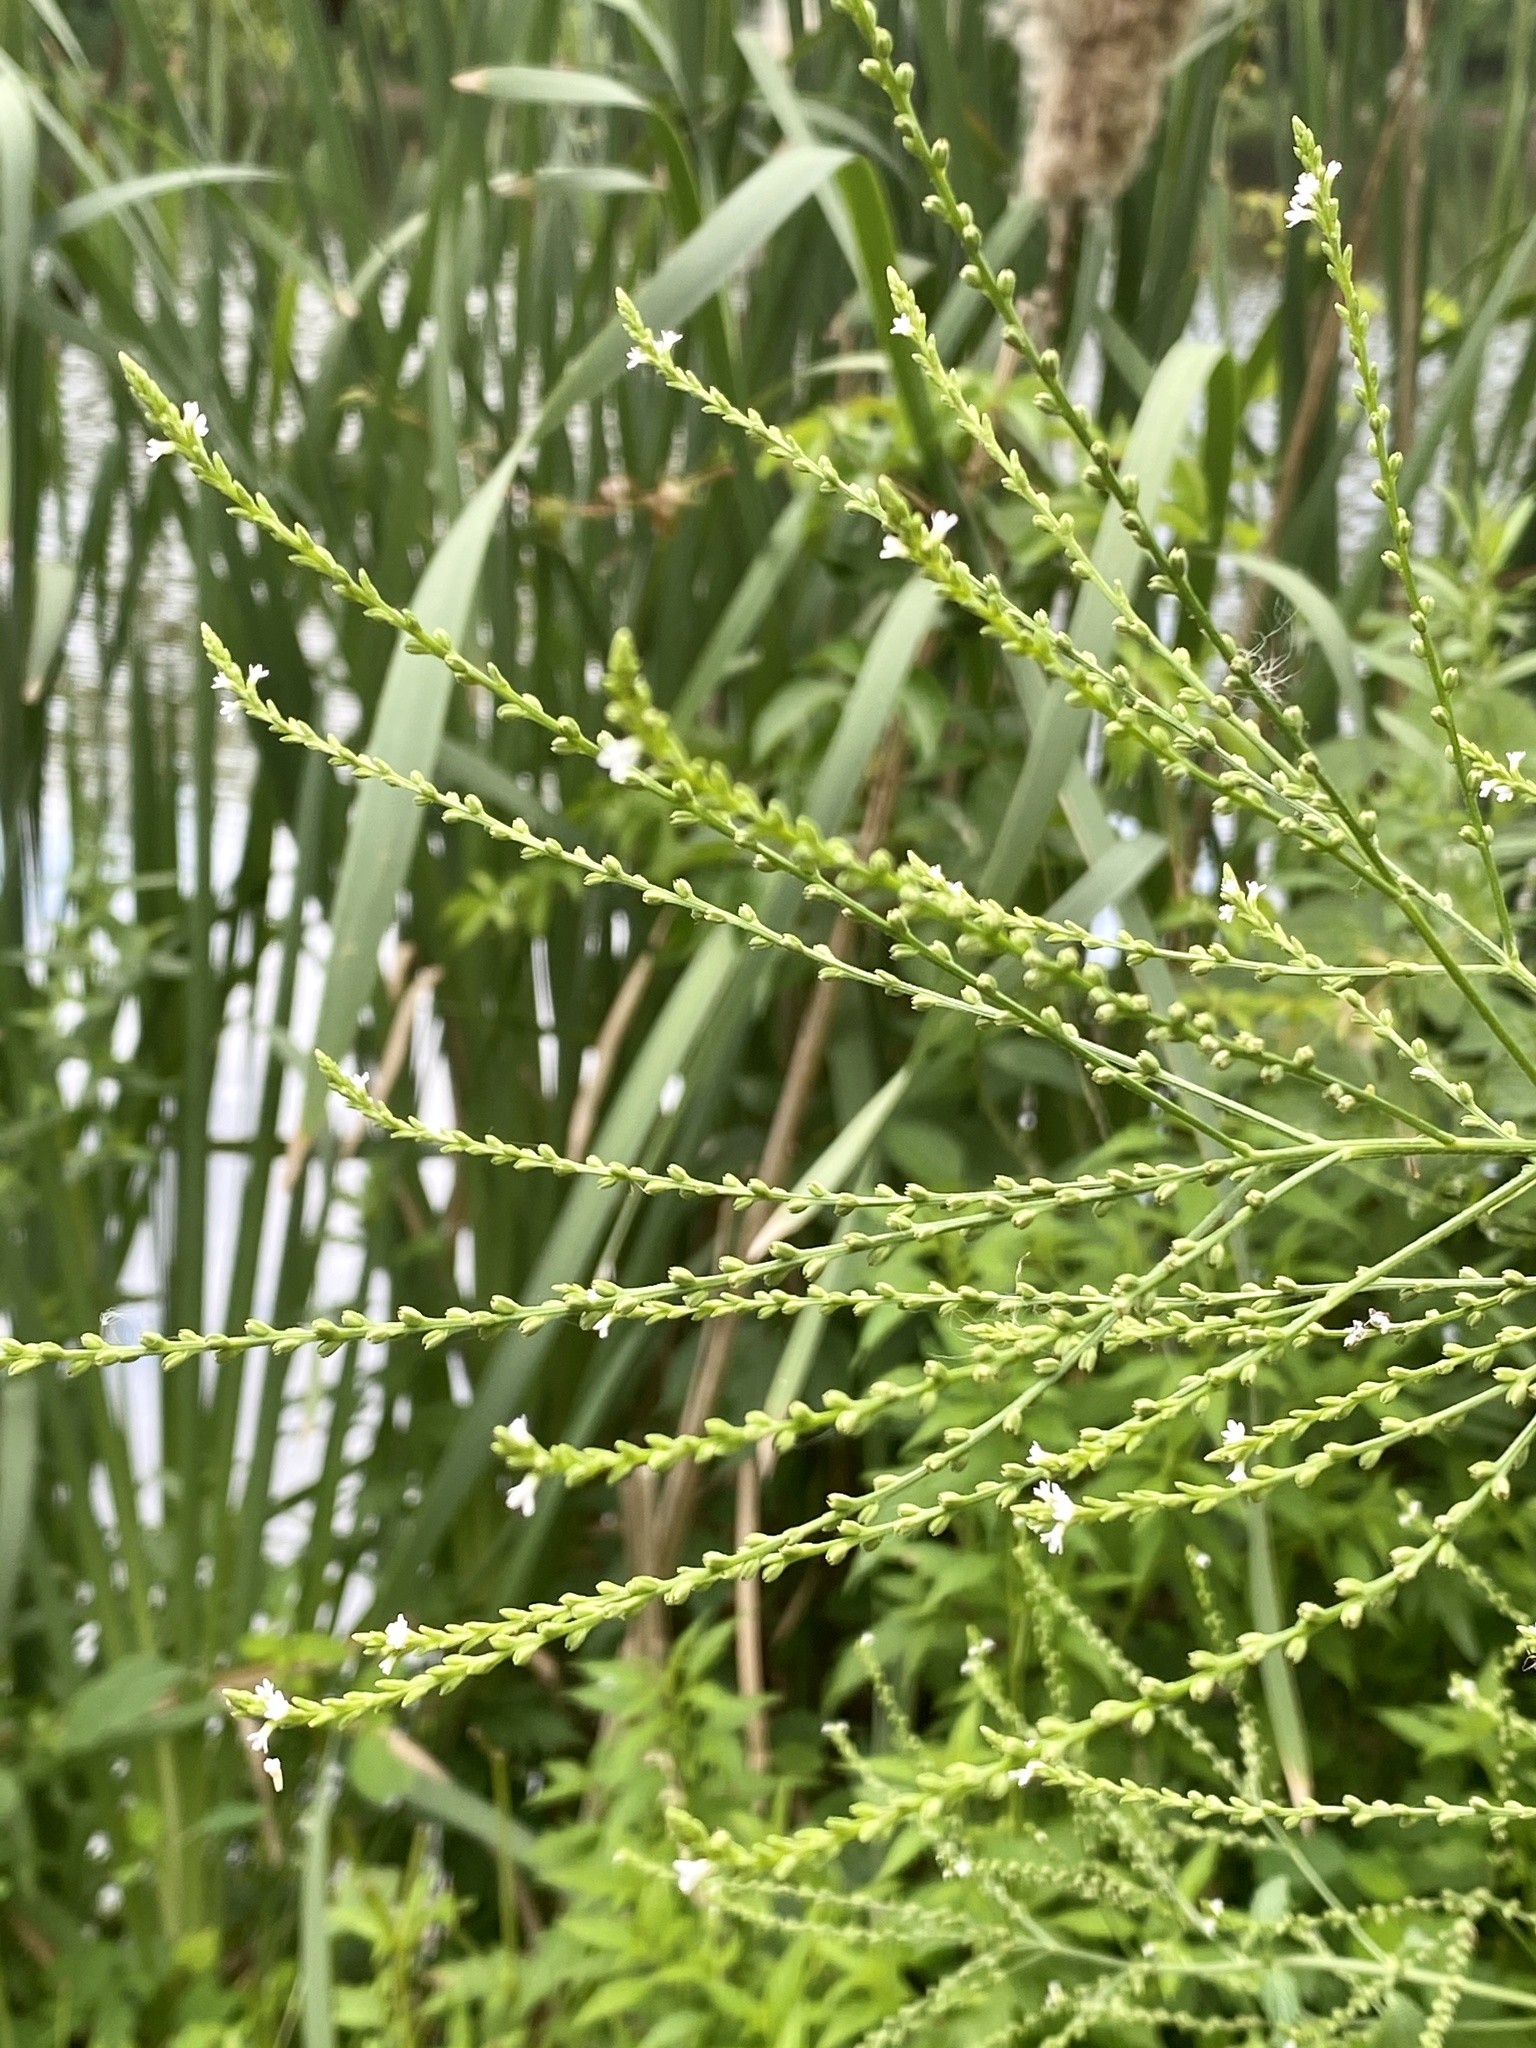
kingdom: Plantae
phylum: Tracheophyta
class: Magnoliopsida
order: Lamiales
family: Verbenaceae
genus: Verbena
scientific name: Verbena urticifolia
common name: Nettle-leaved vervain
